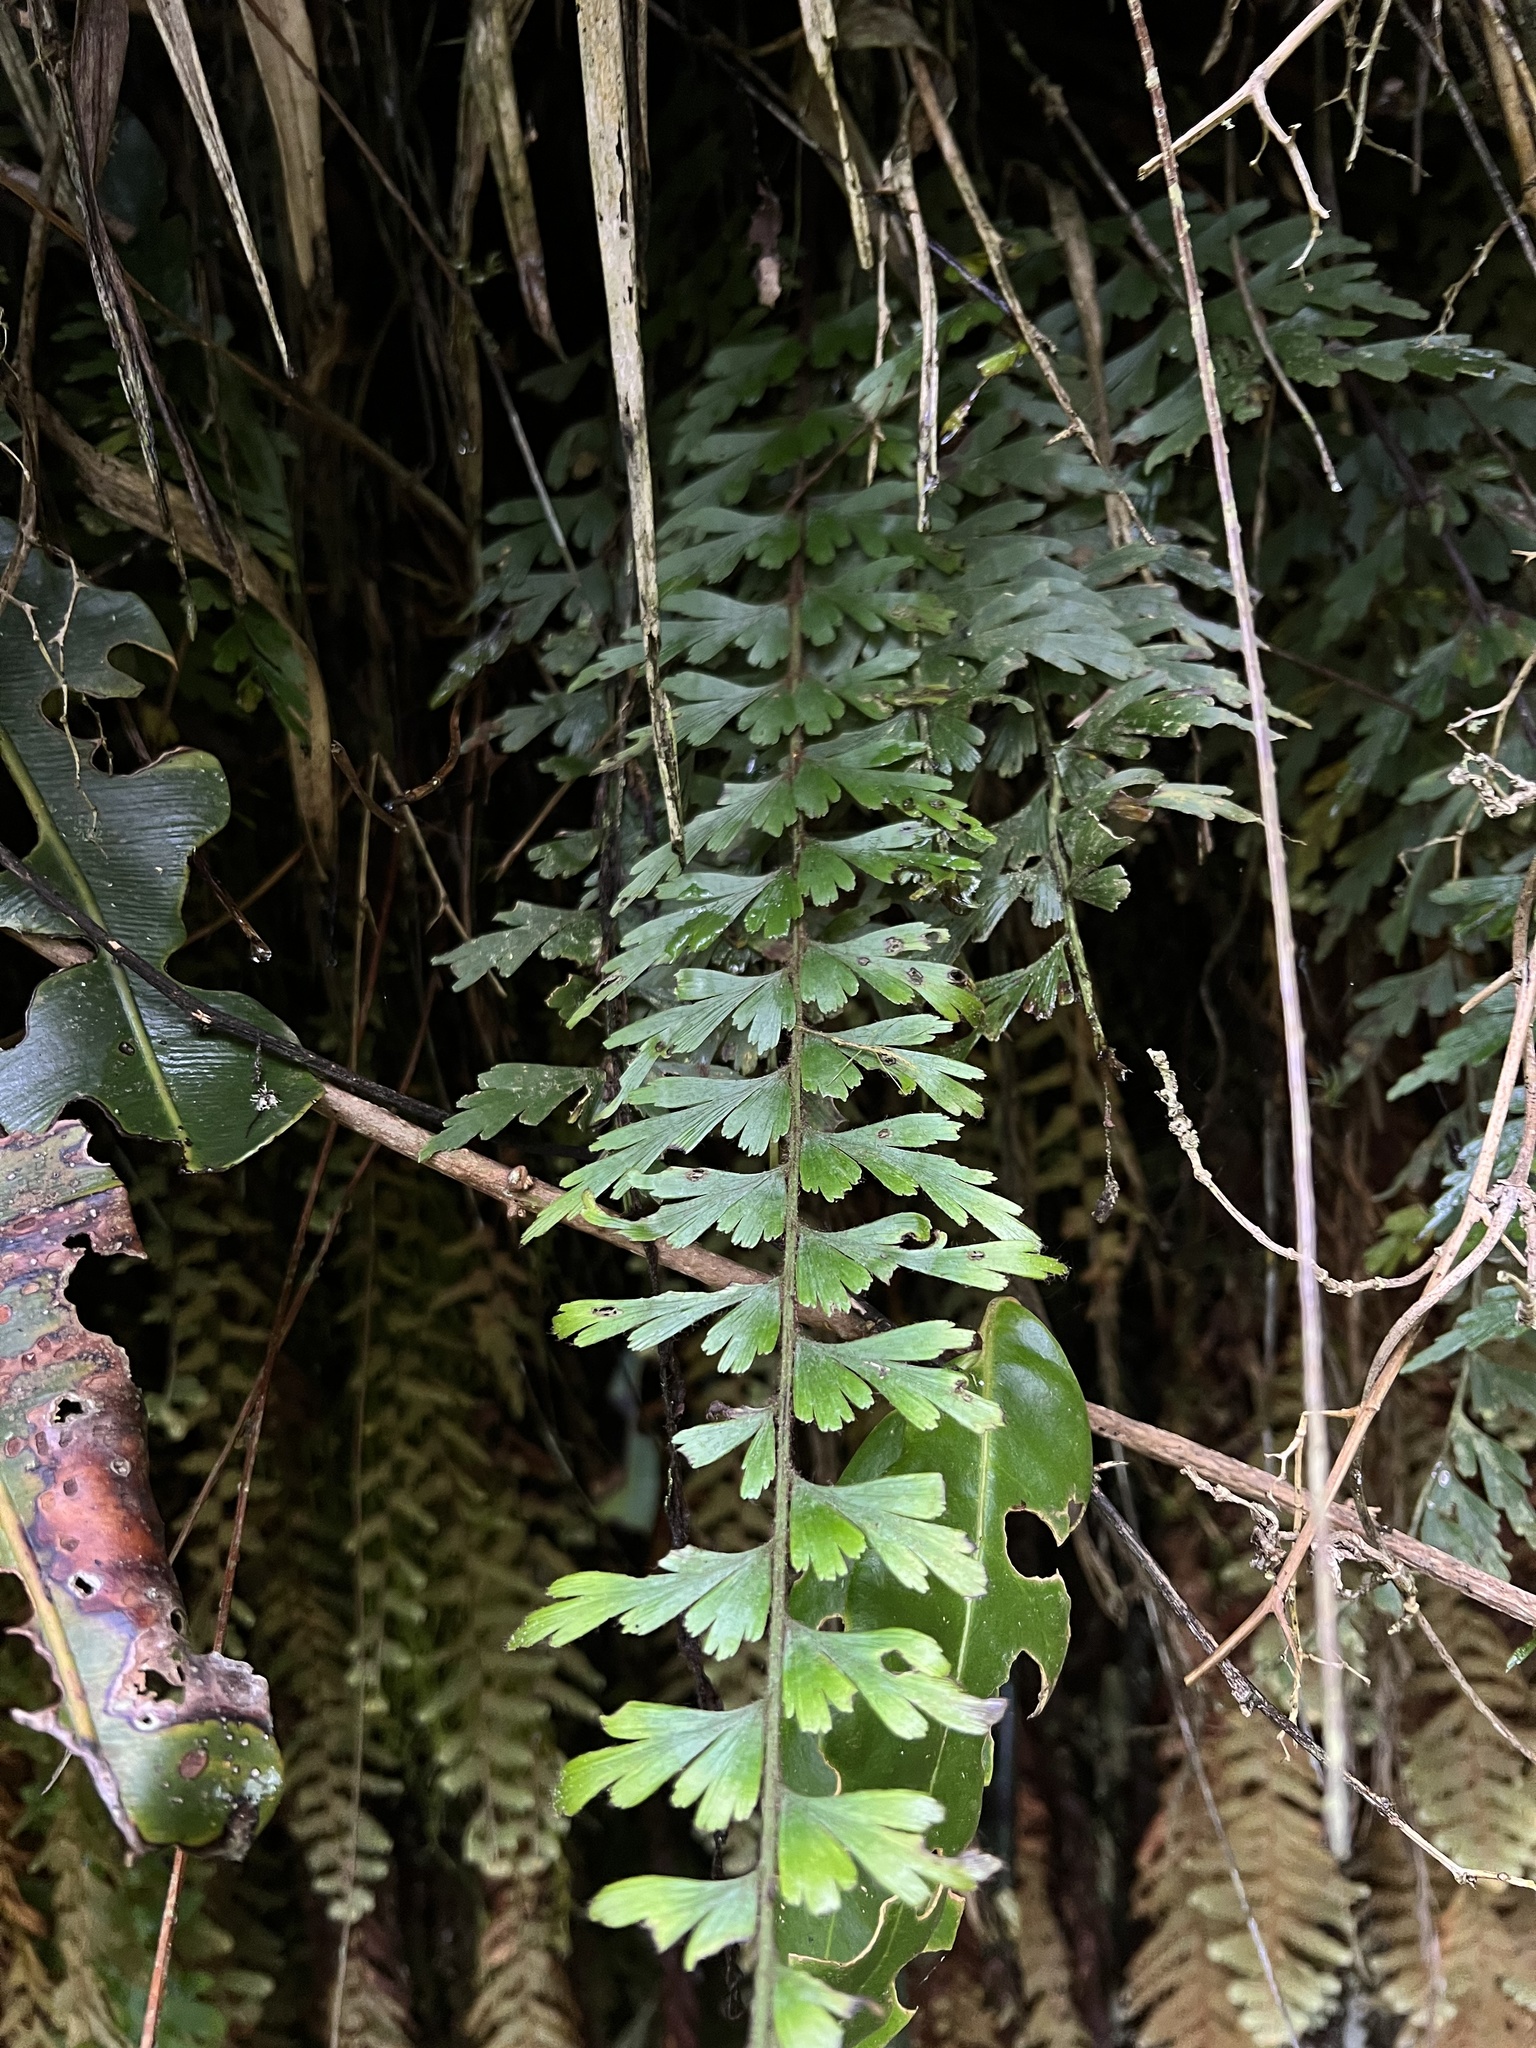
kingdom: Plantae
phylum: Tracheophyta
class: Polypodiopsida
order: Polypodiales
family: Aspleniaceae
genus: Asplenium
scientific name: Asplenium praemorsum
